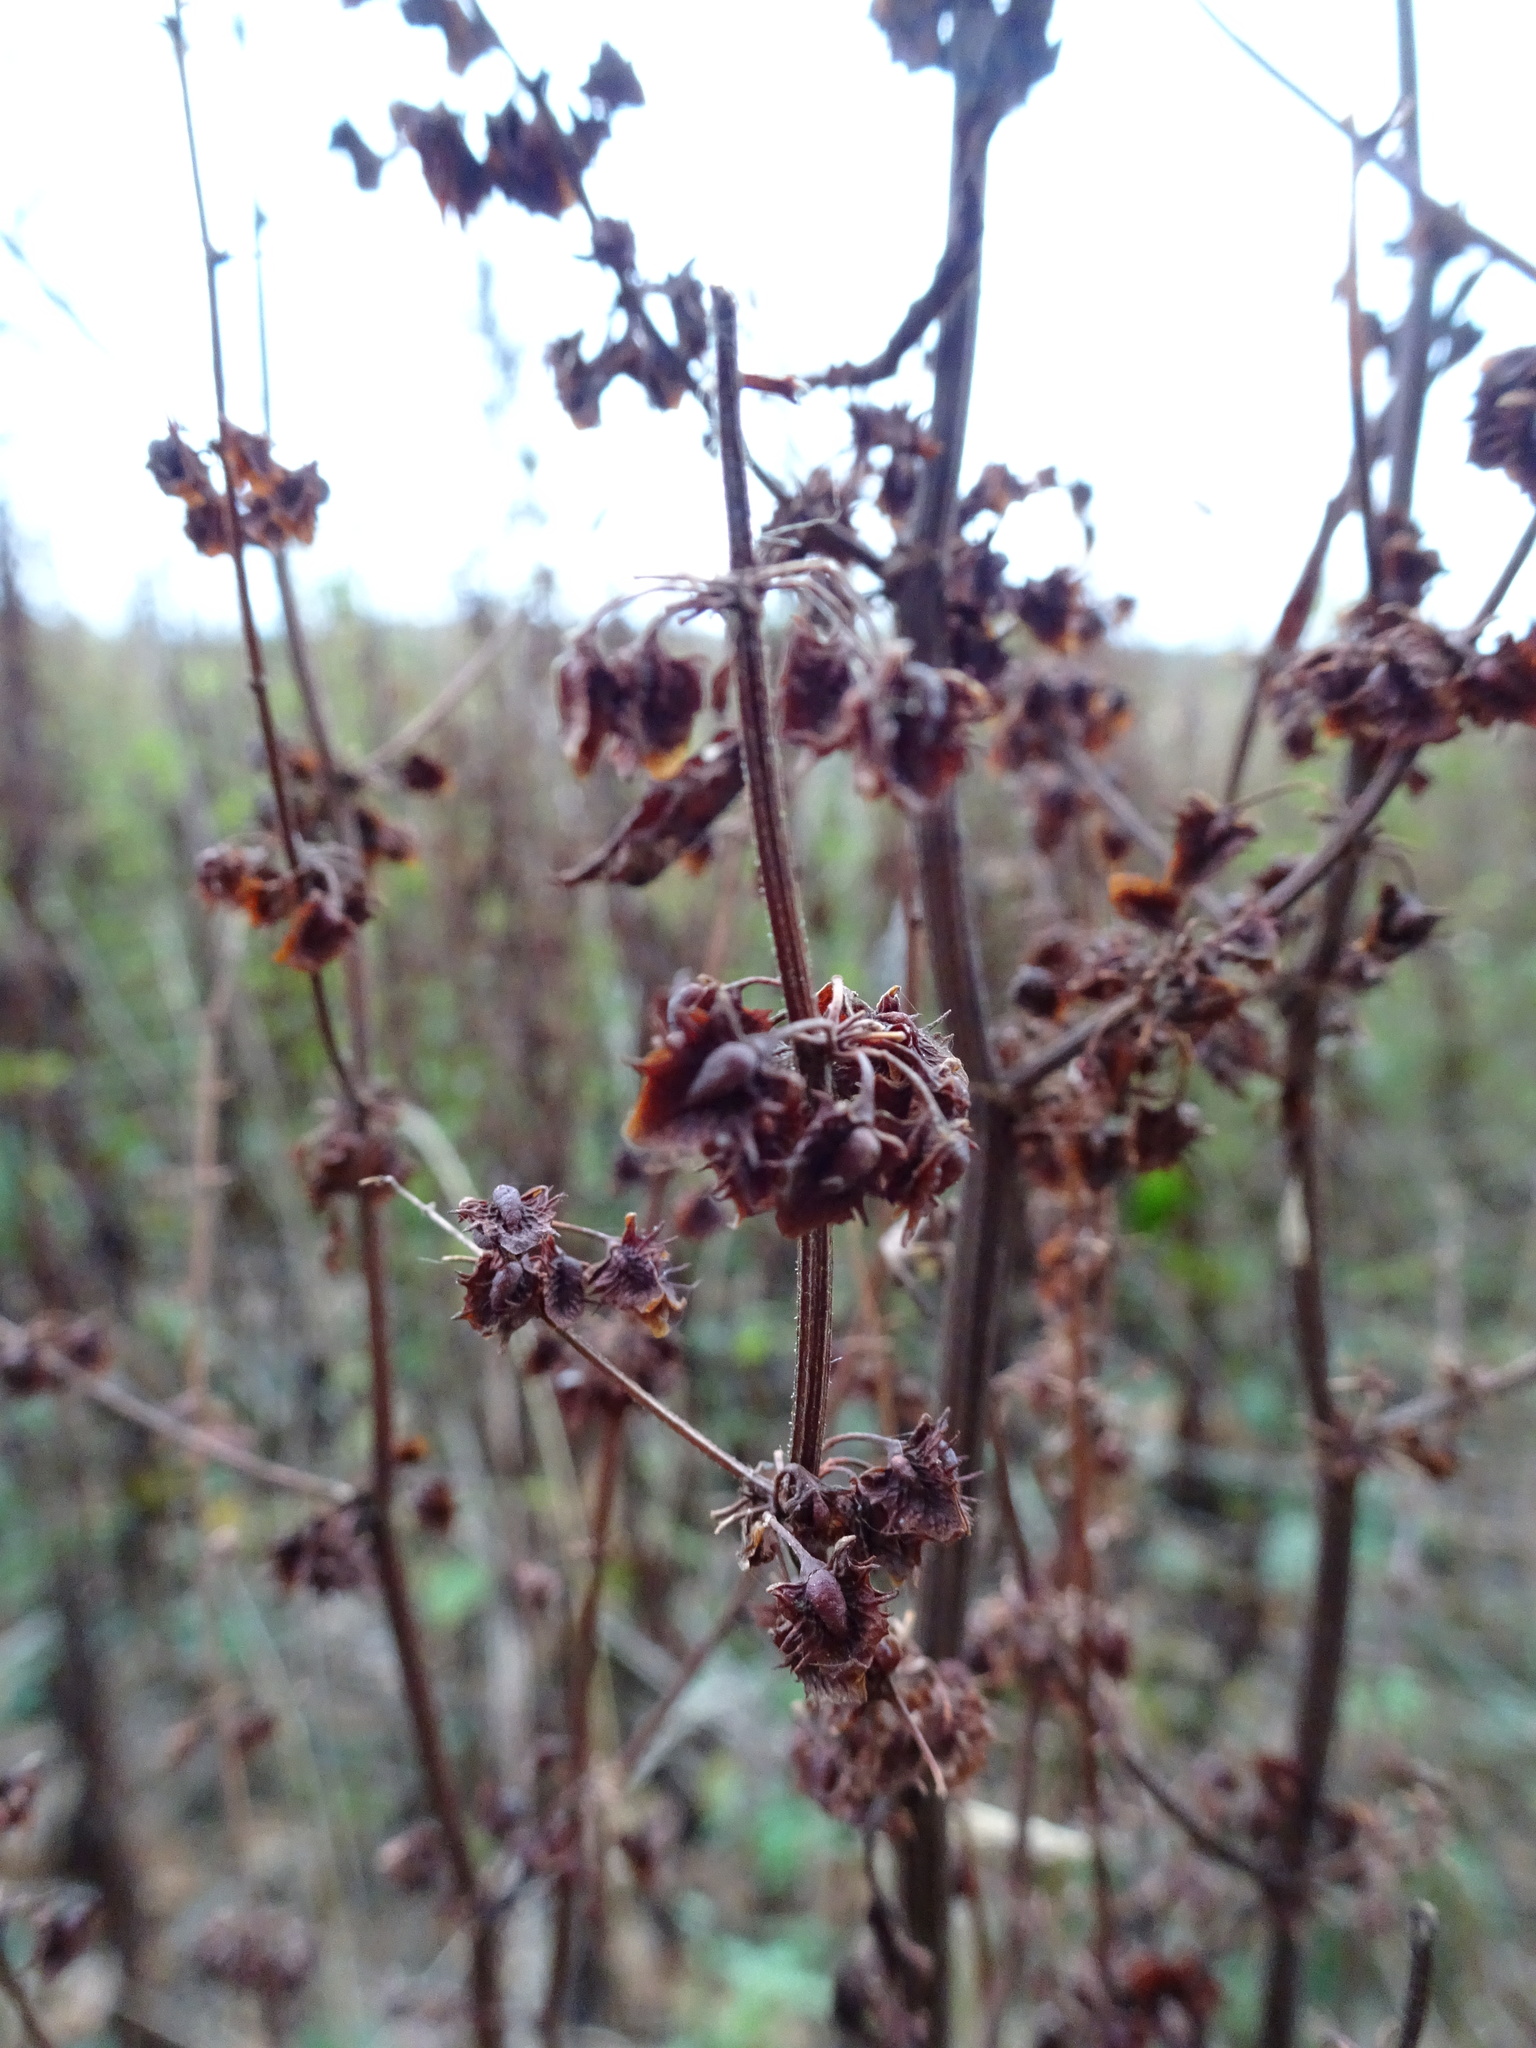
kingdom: Plantae
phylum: Tracheophyta
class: Magnoliopsida
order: Caryophyllales
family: Polygonaceae
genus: Rumex
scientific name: Rumex obtusifolius
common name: Bitter dock
